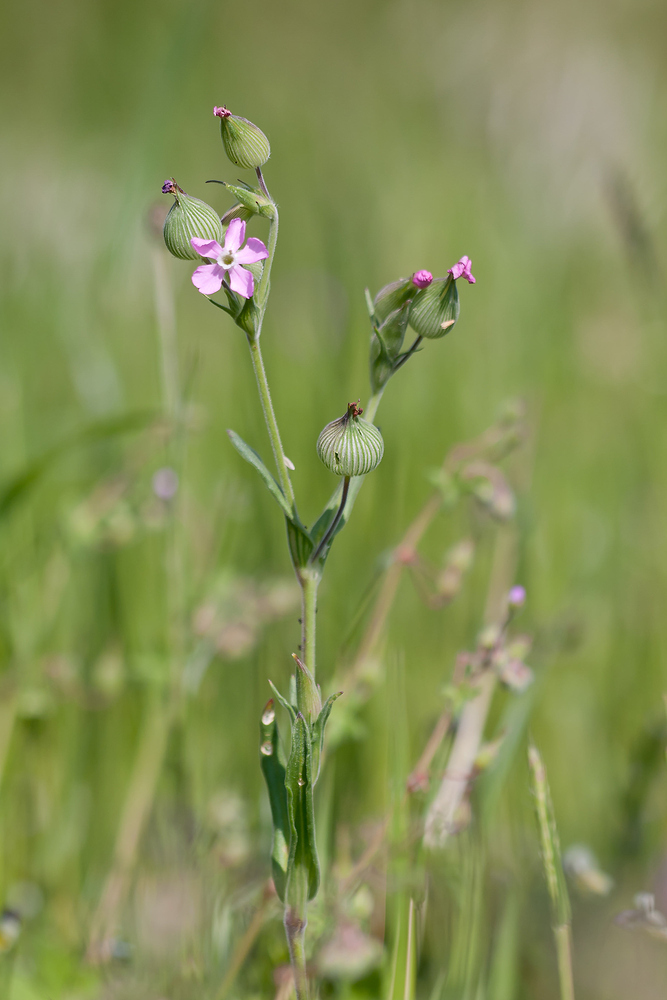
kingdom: Plantae
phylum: Tracheophyta
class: Magnoliopsida
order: Caryophyllales
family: Caryophyllaceae
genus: Silene
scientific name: Silene conica
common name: Sand catchfly
